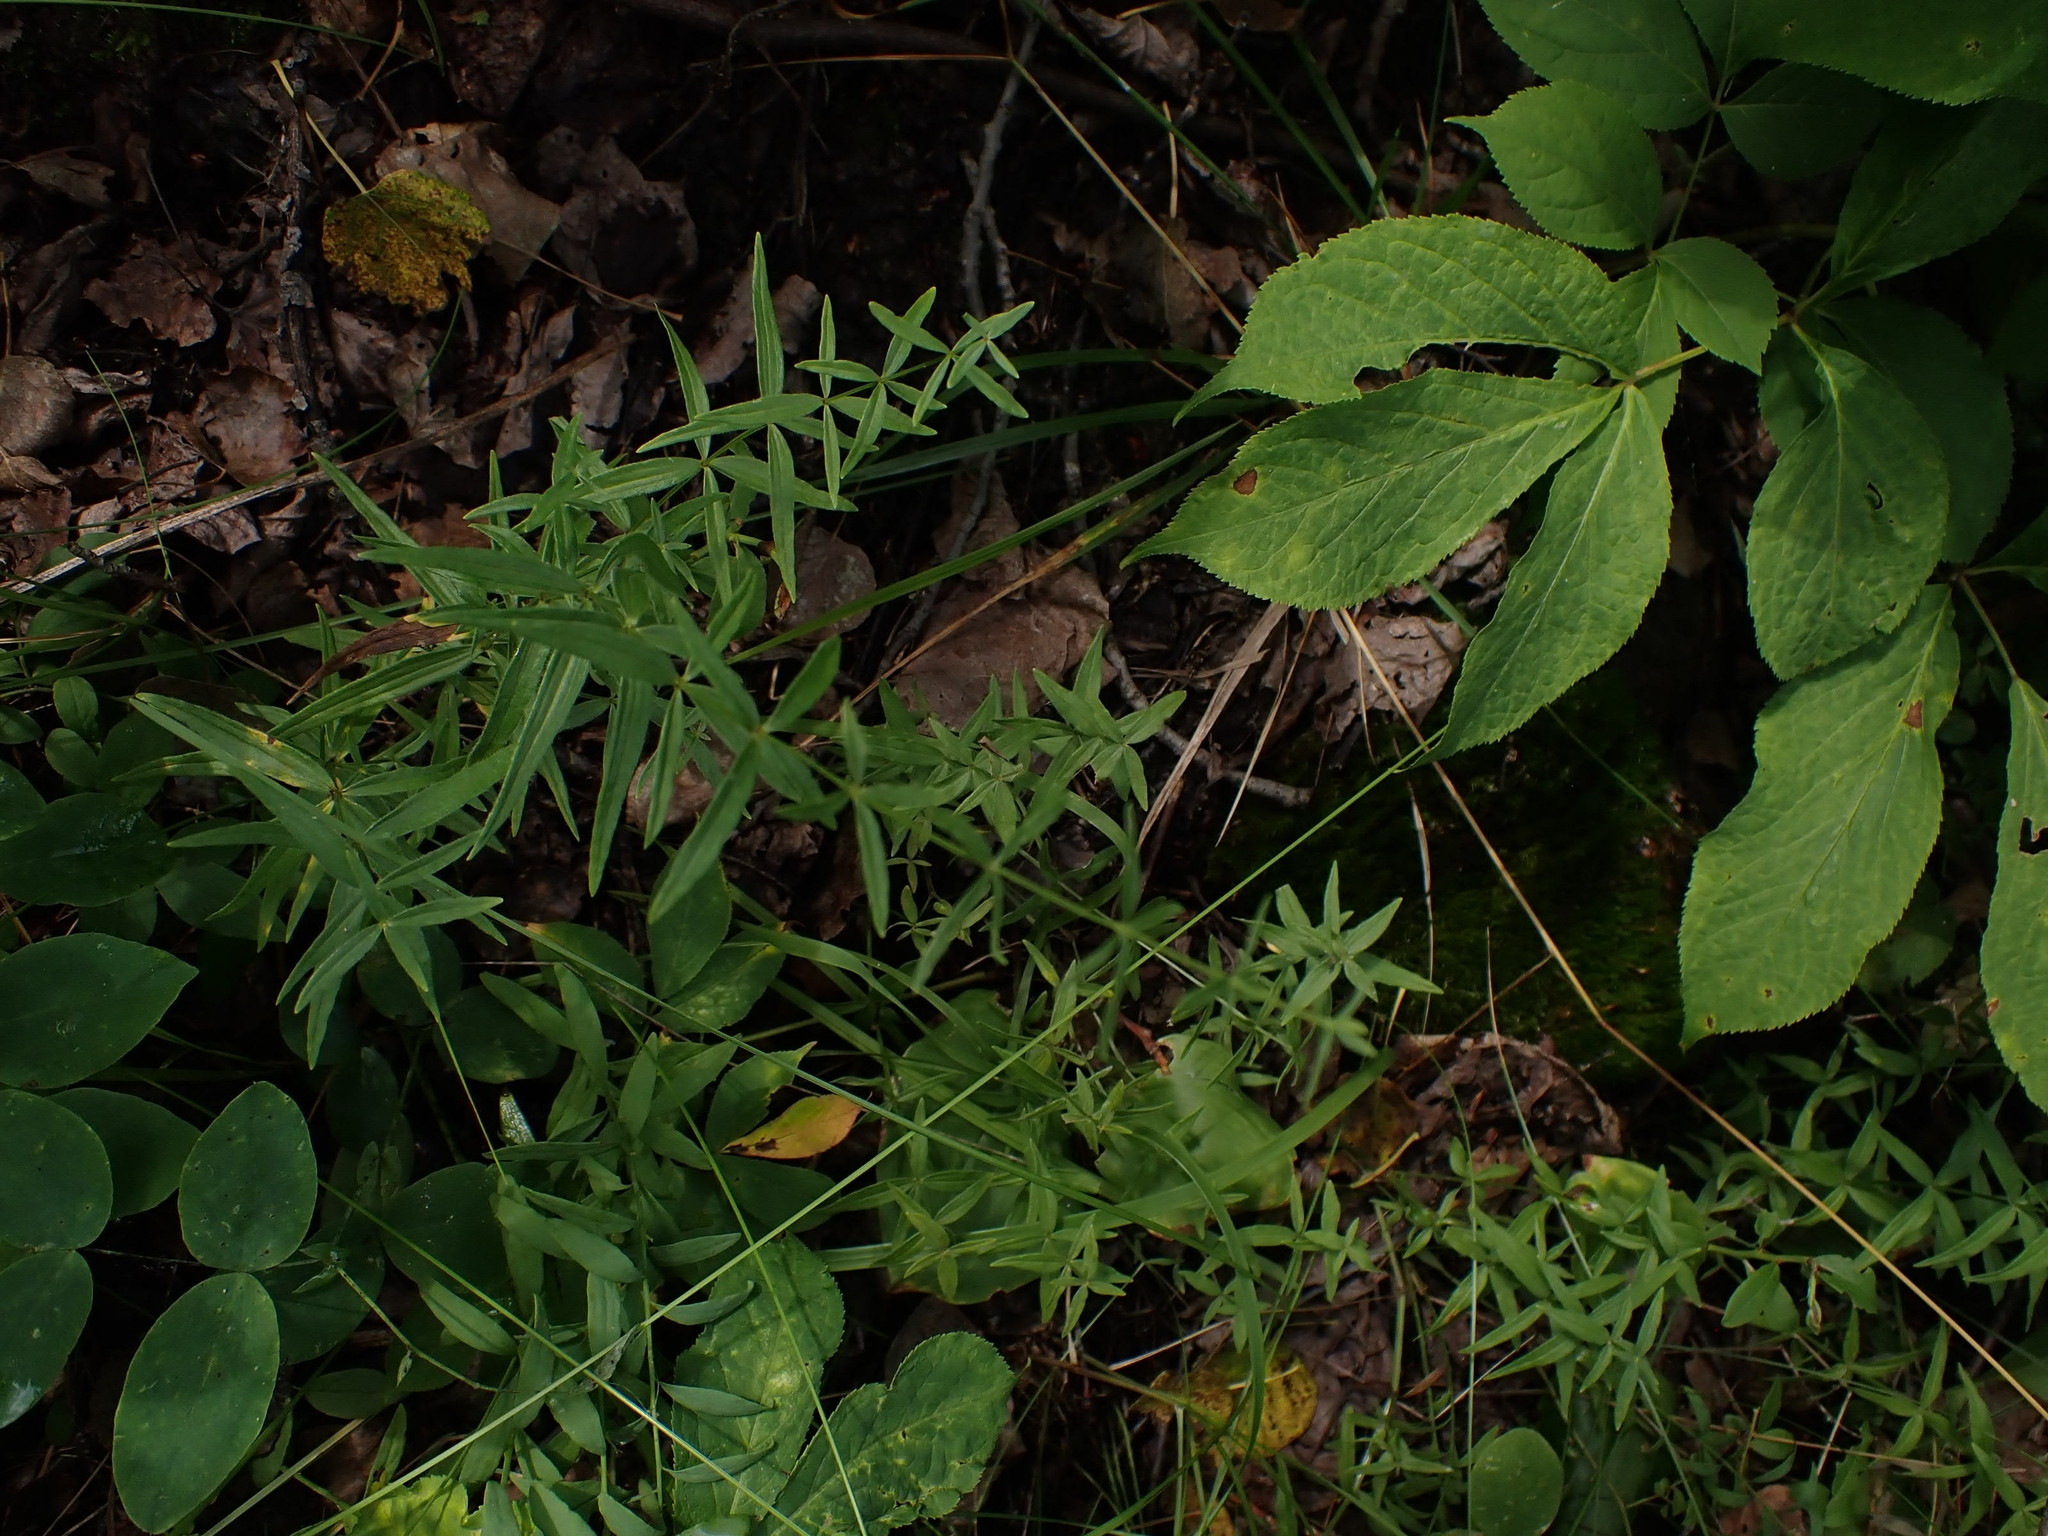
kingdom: Plantae
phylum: Tracheophyta
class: Magnoliopsida
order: Gentianales
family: Rubiaceae
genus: Galium
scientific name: Galium boreale
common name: Northern bedstraw
